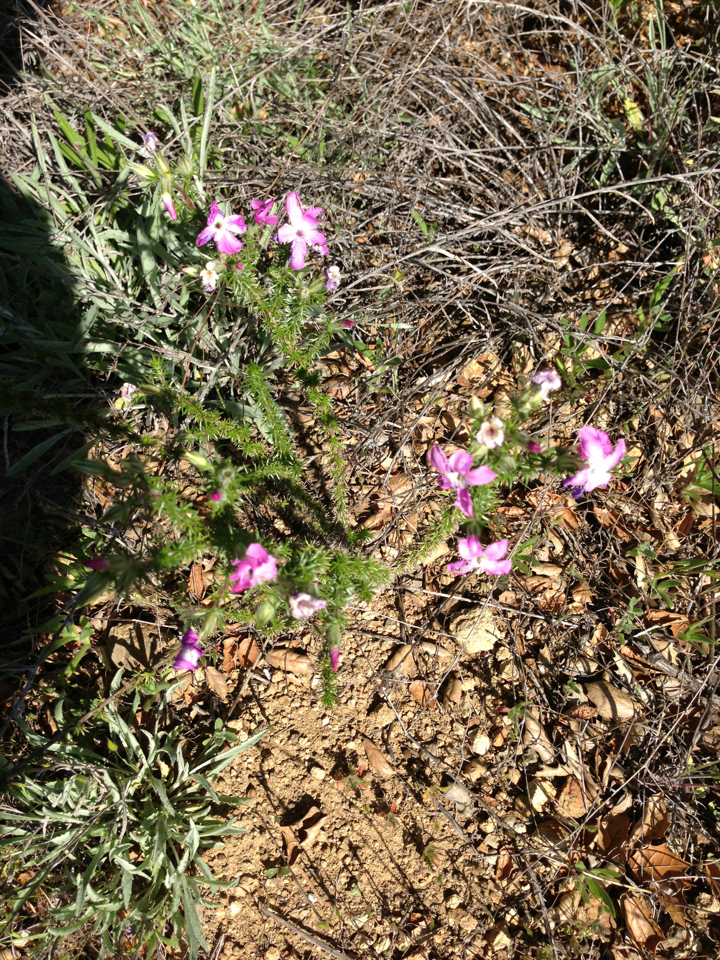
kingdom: Plantae
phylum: Tracheophyta
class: Magnoliopsida
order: Ericales
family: Polemoniaceae
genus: Linanthus
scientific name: Linanthus californicus
